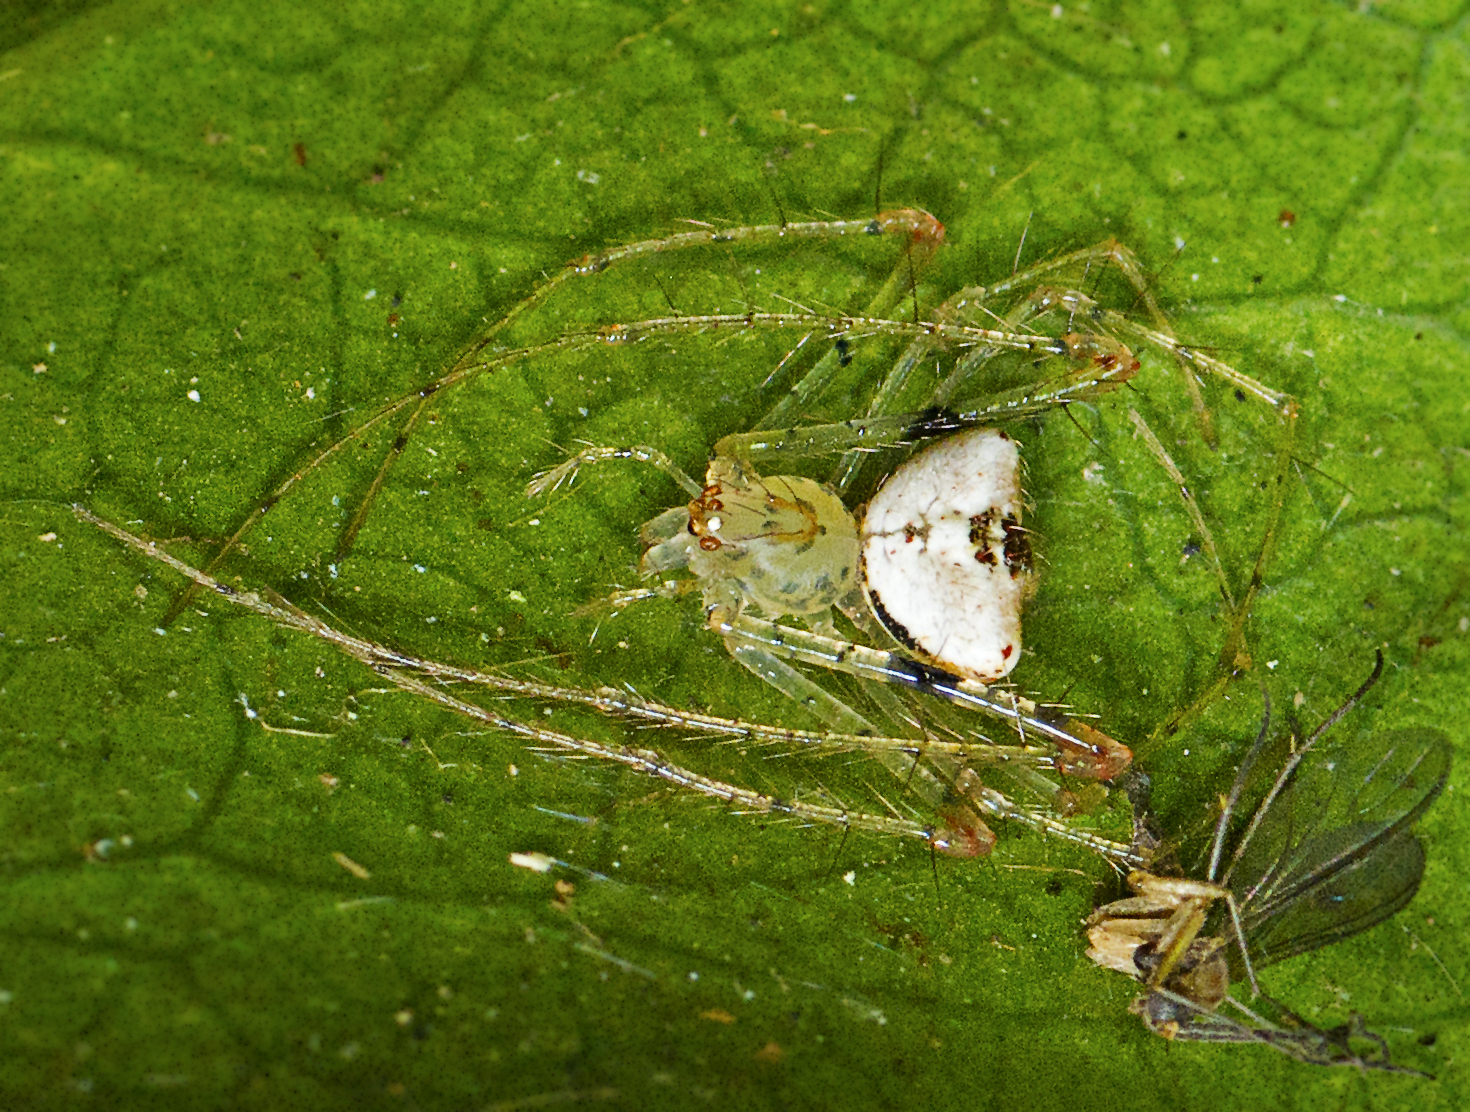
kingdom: Animalia
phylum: Arthropoda
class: Arachnida
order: Araneae
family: Mimetidae
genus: Australomimetus
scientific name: Australomimetus triangulosus
